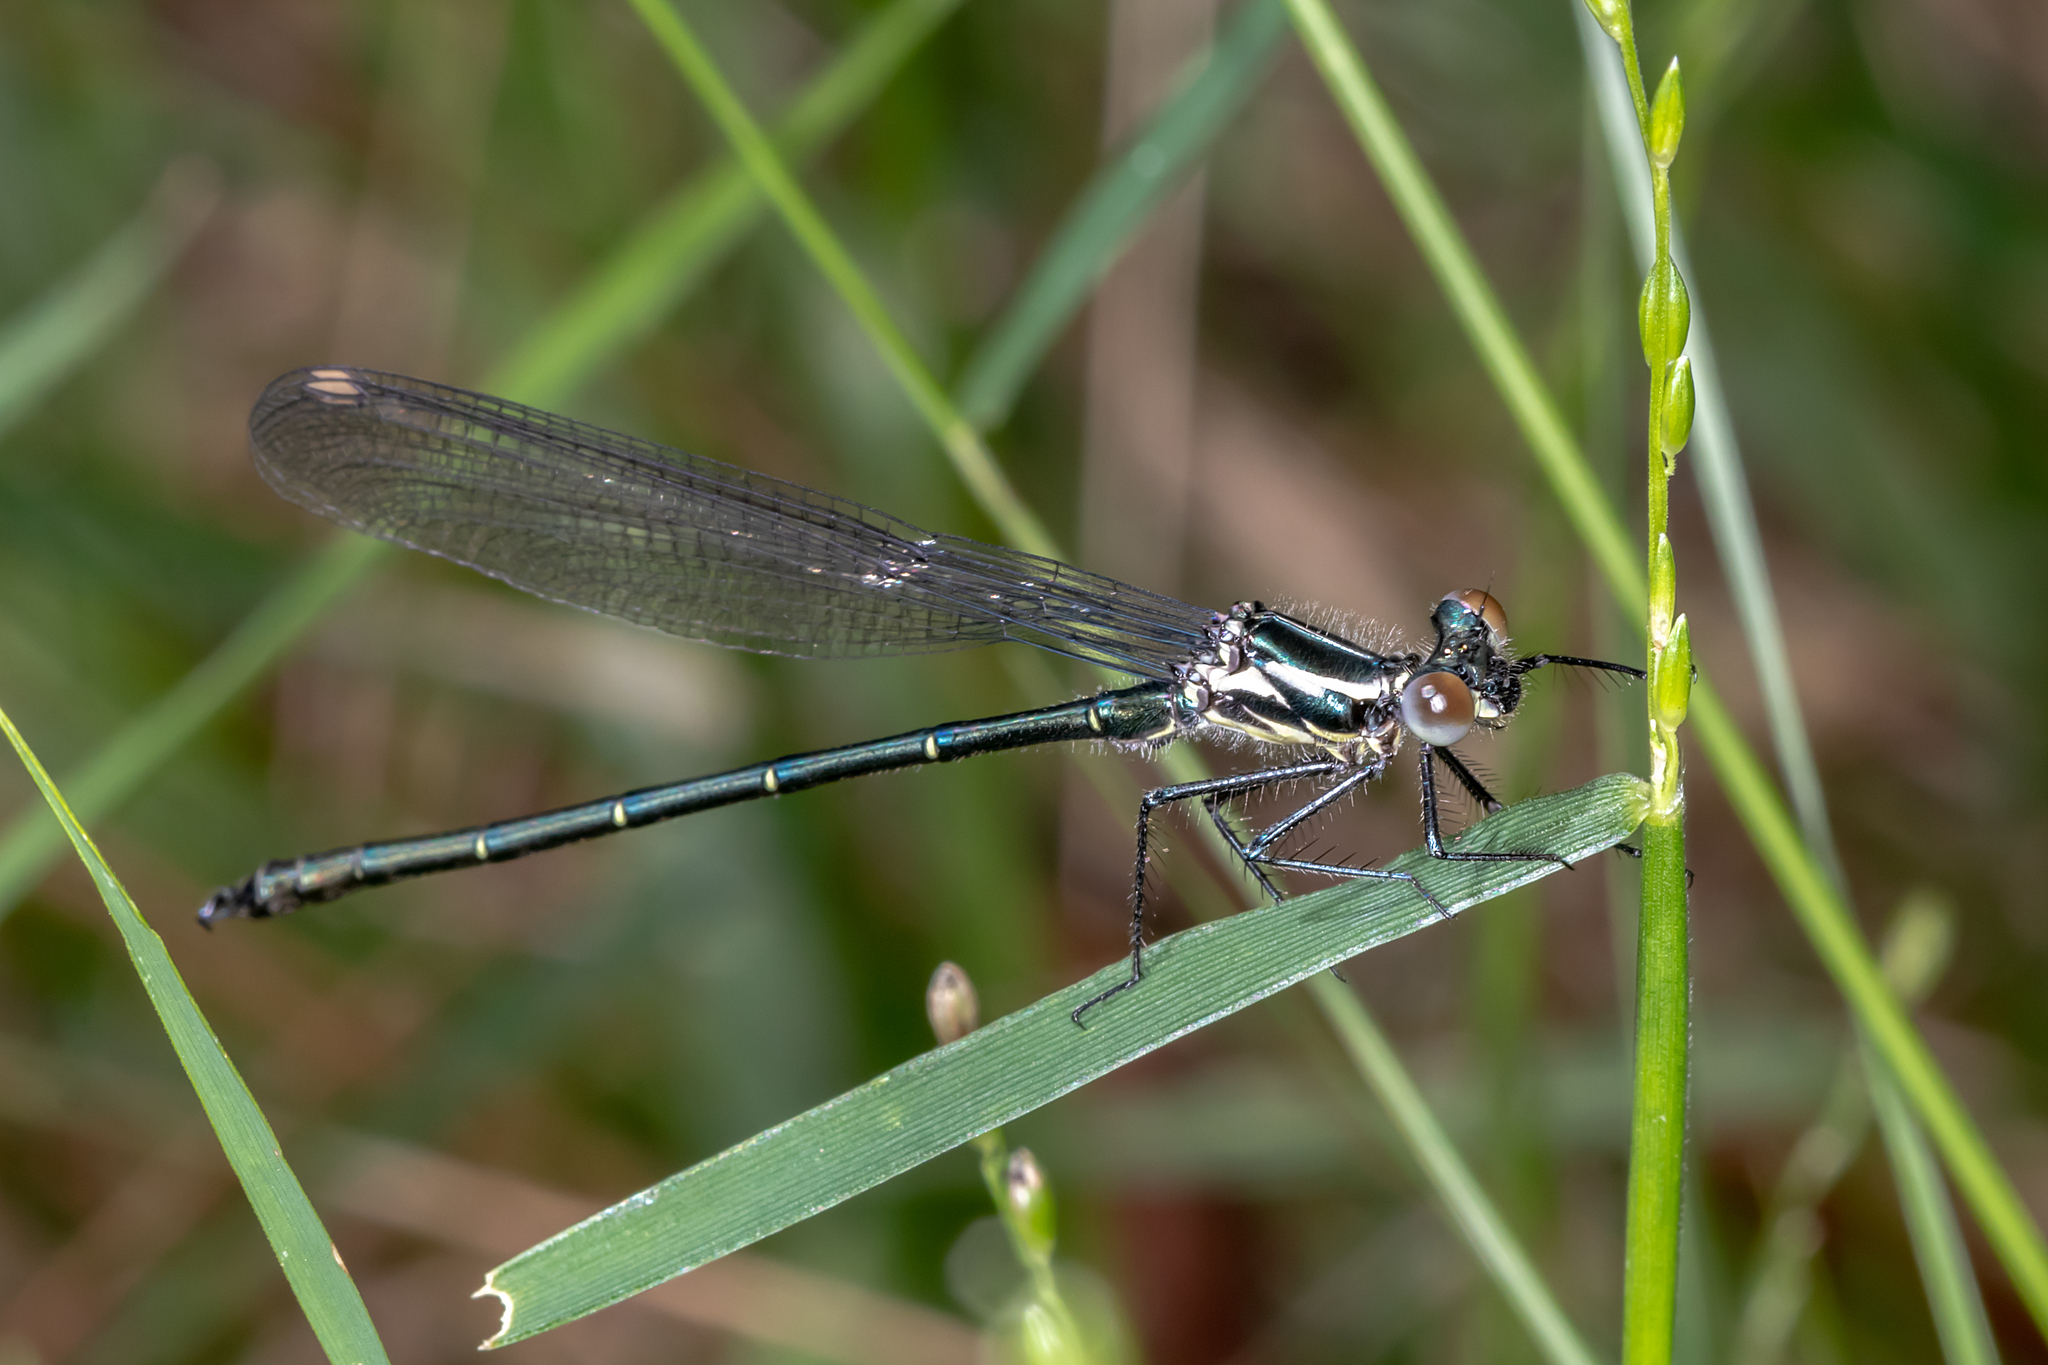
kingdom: Animalia
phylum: Arthropoda
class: Insecta
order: Odonata
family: Argiolestidae
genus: Austroargiolestes
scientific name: Austroargiolestes icteromelas
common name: Common flatwing
